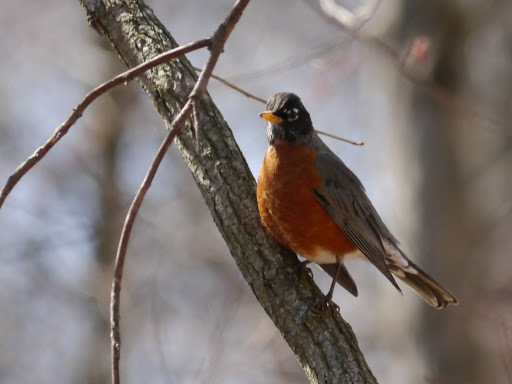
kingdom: Animalia
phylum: Chordata
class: Aves
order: Passeriformes
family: Turdidae
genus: Turdus
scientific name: Turdus migratorius
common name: American robin
